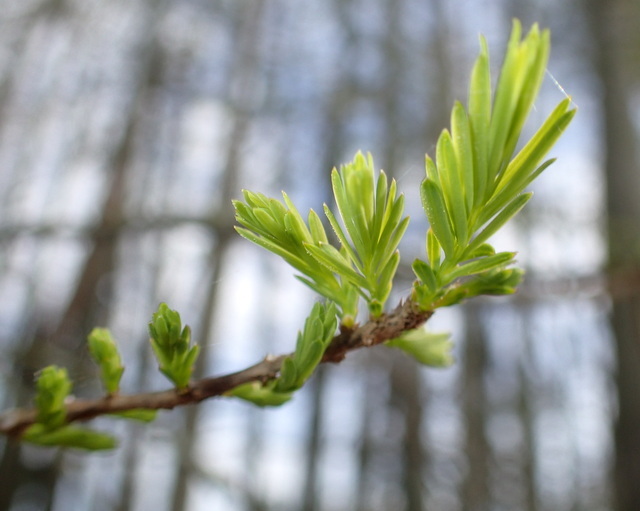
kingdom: Plantae
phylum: Tracheophyta
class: Pinopsida
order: Pinales
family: Cupressaceae
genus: Taxodium
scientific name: Taxodium distichum
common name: Bald cypress
